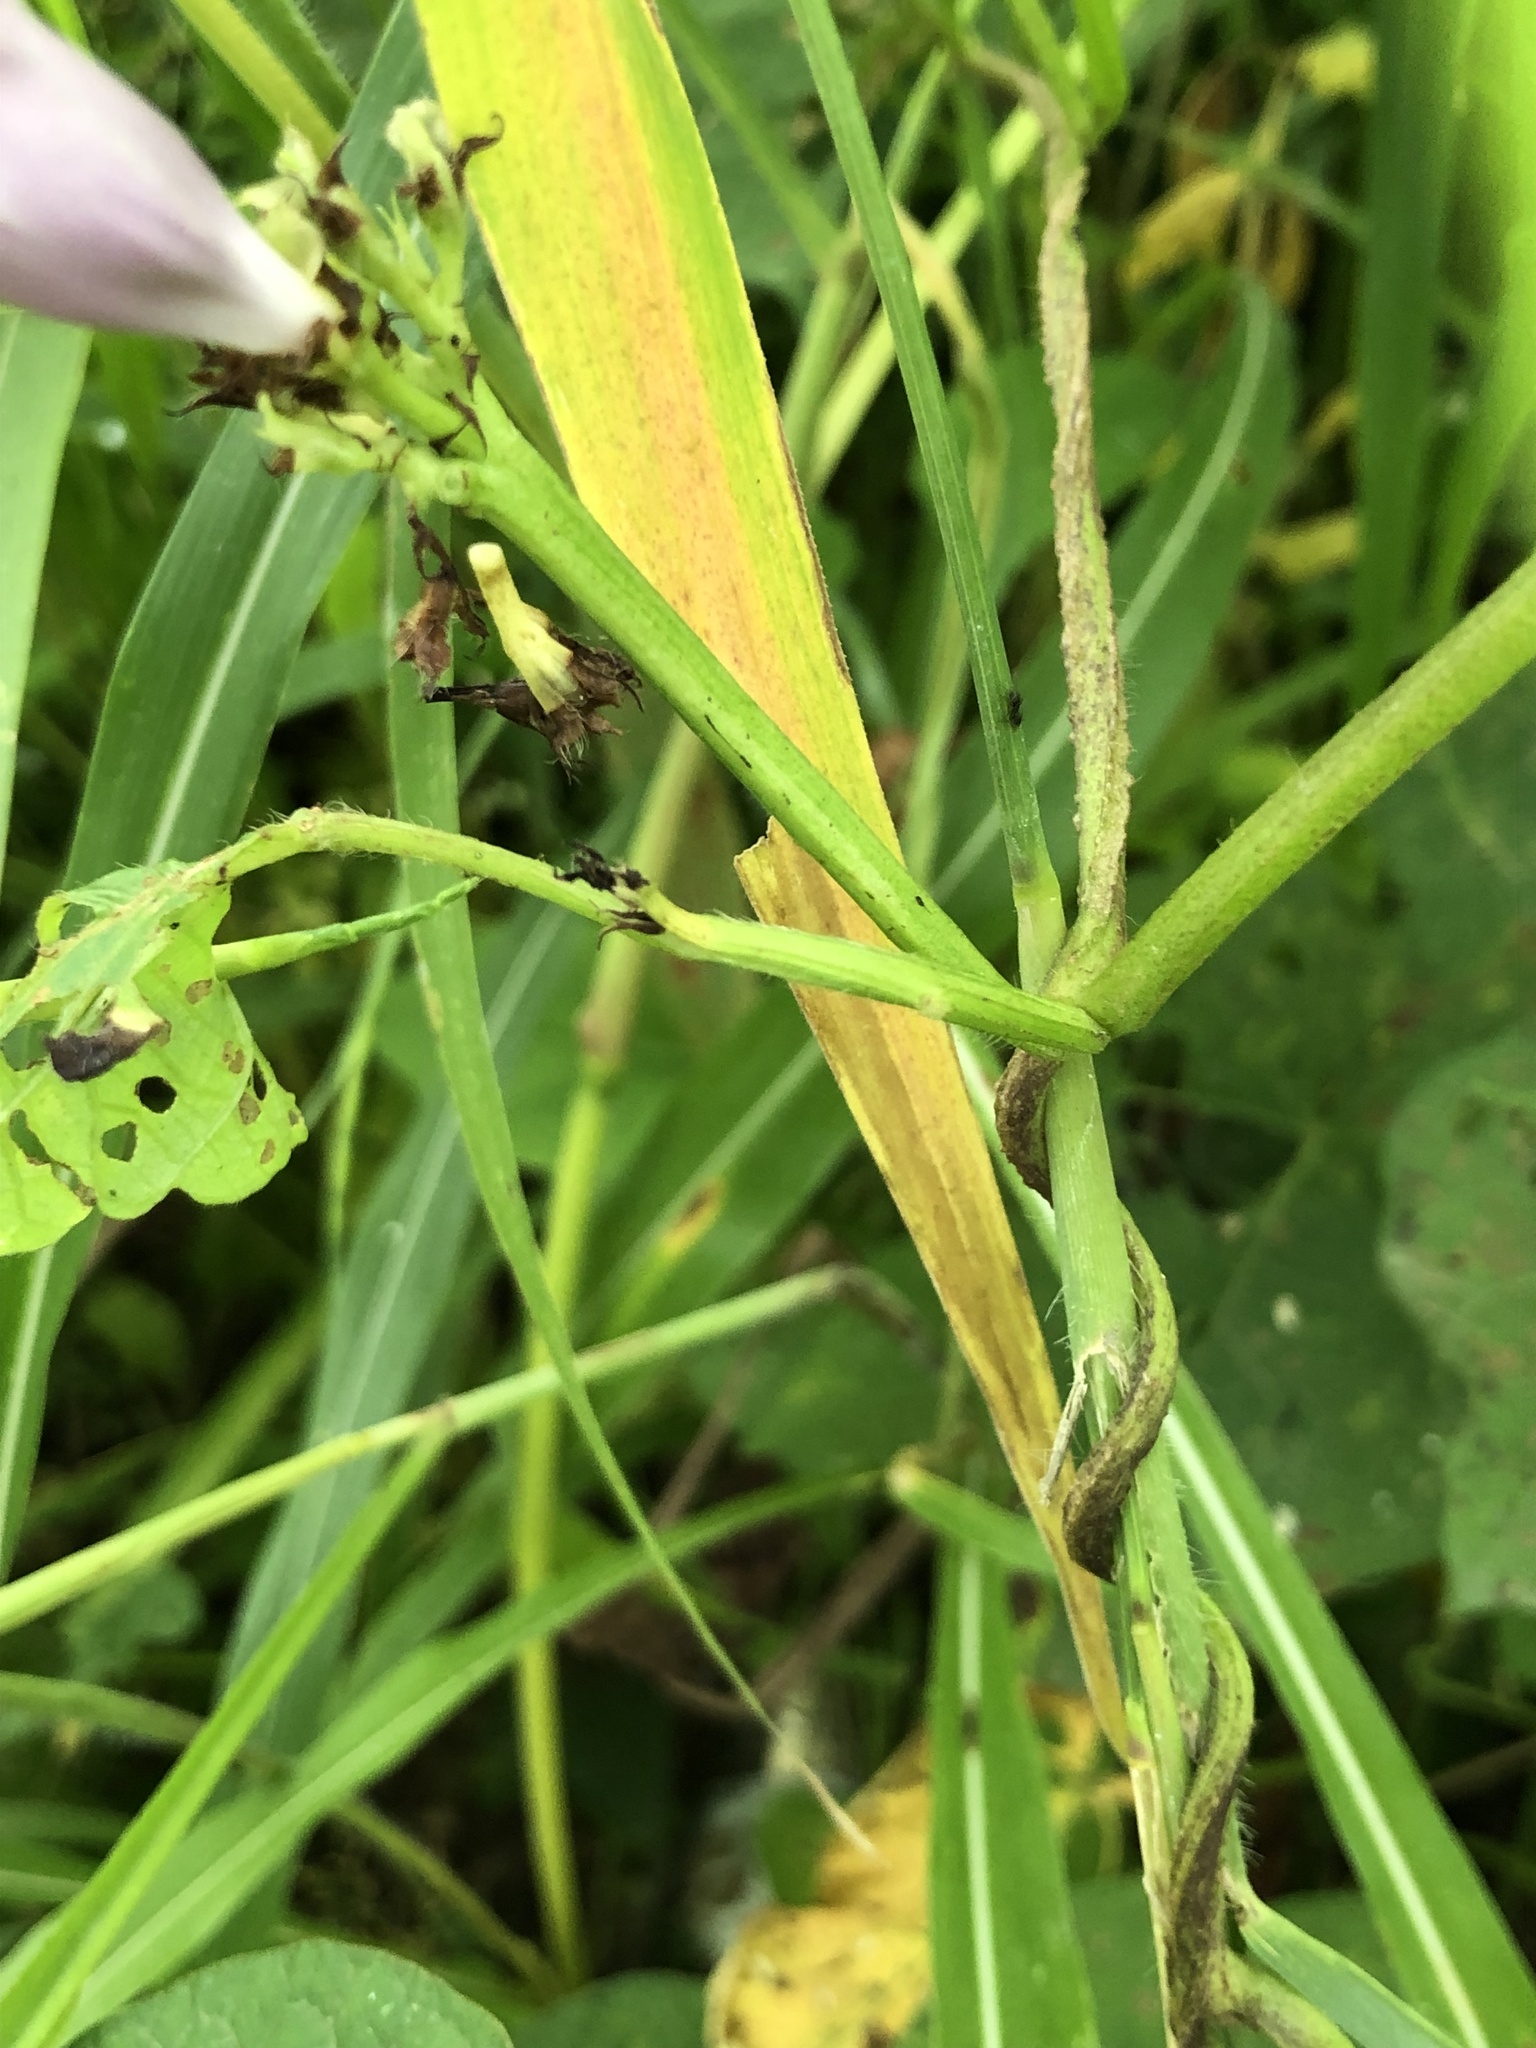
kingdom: Plantae
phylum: Tracheophyta
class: Magnoliopsida
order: Solanales
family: Convolvulaceae
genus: Ipomoea
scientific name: Ipomoea batatas
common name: Sweet-potato
